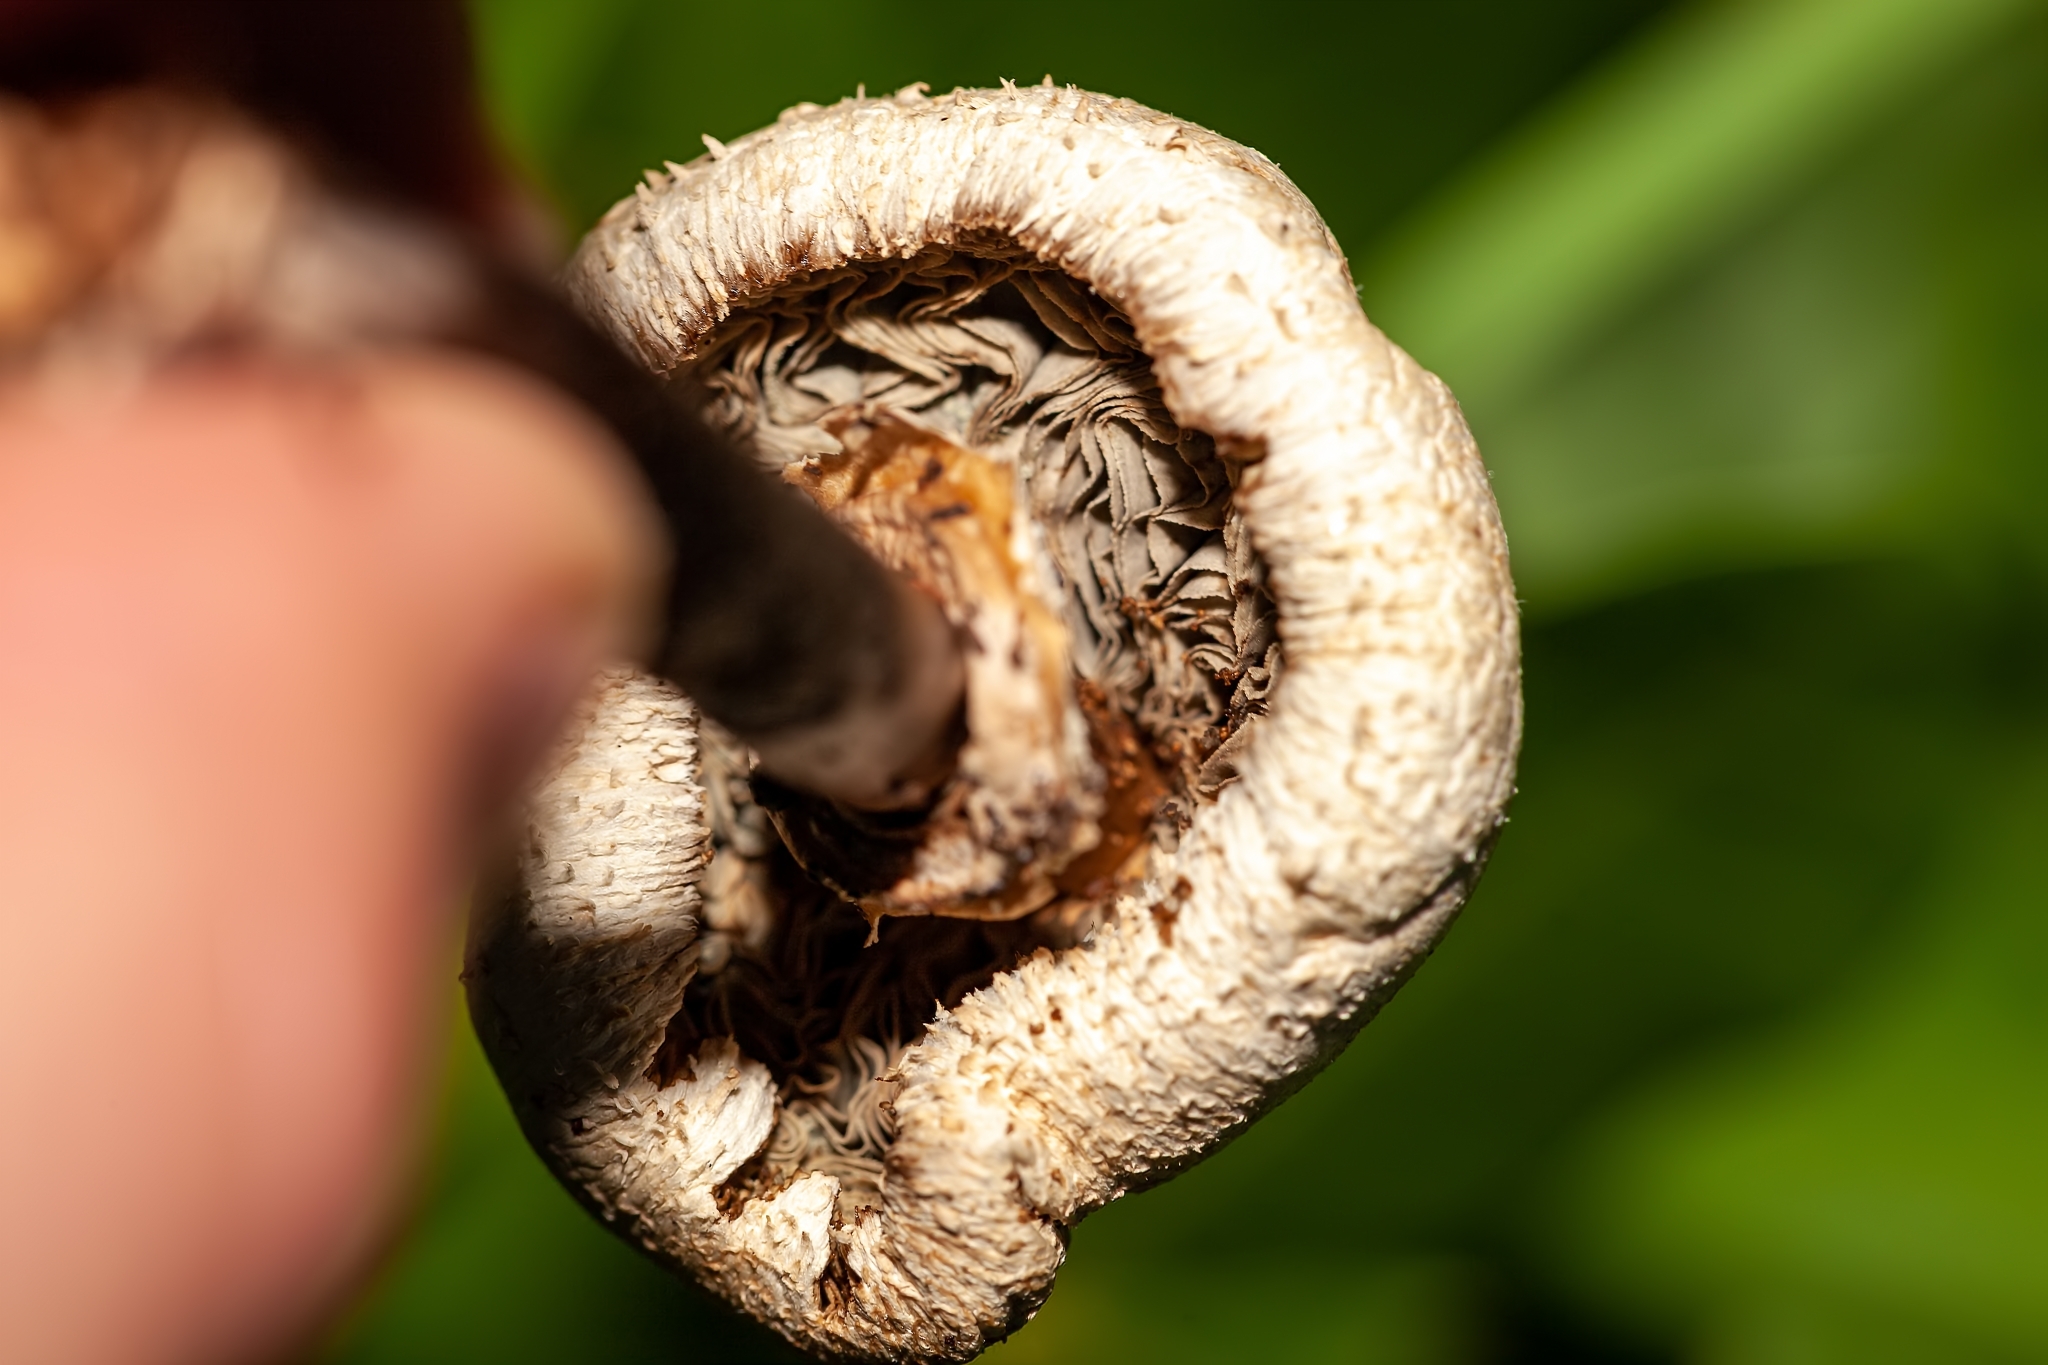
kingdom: Fungi
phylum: Basidiomycota
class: Agaricomycetes
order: Agaricales
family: Agaricaceae
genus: Chlorophyllum
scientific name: Chlorophyllum molybdites
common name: False parasol
